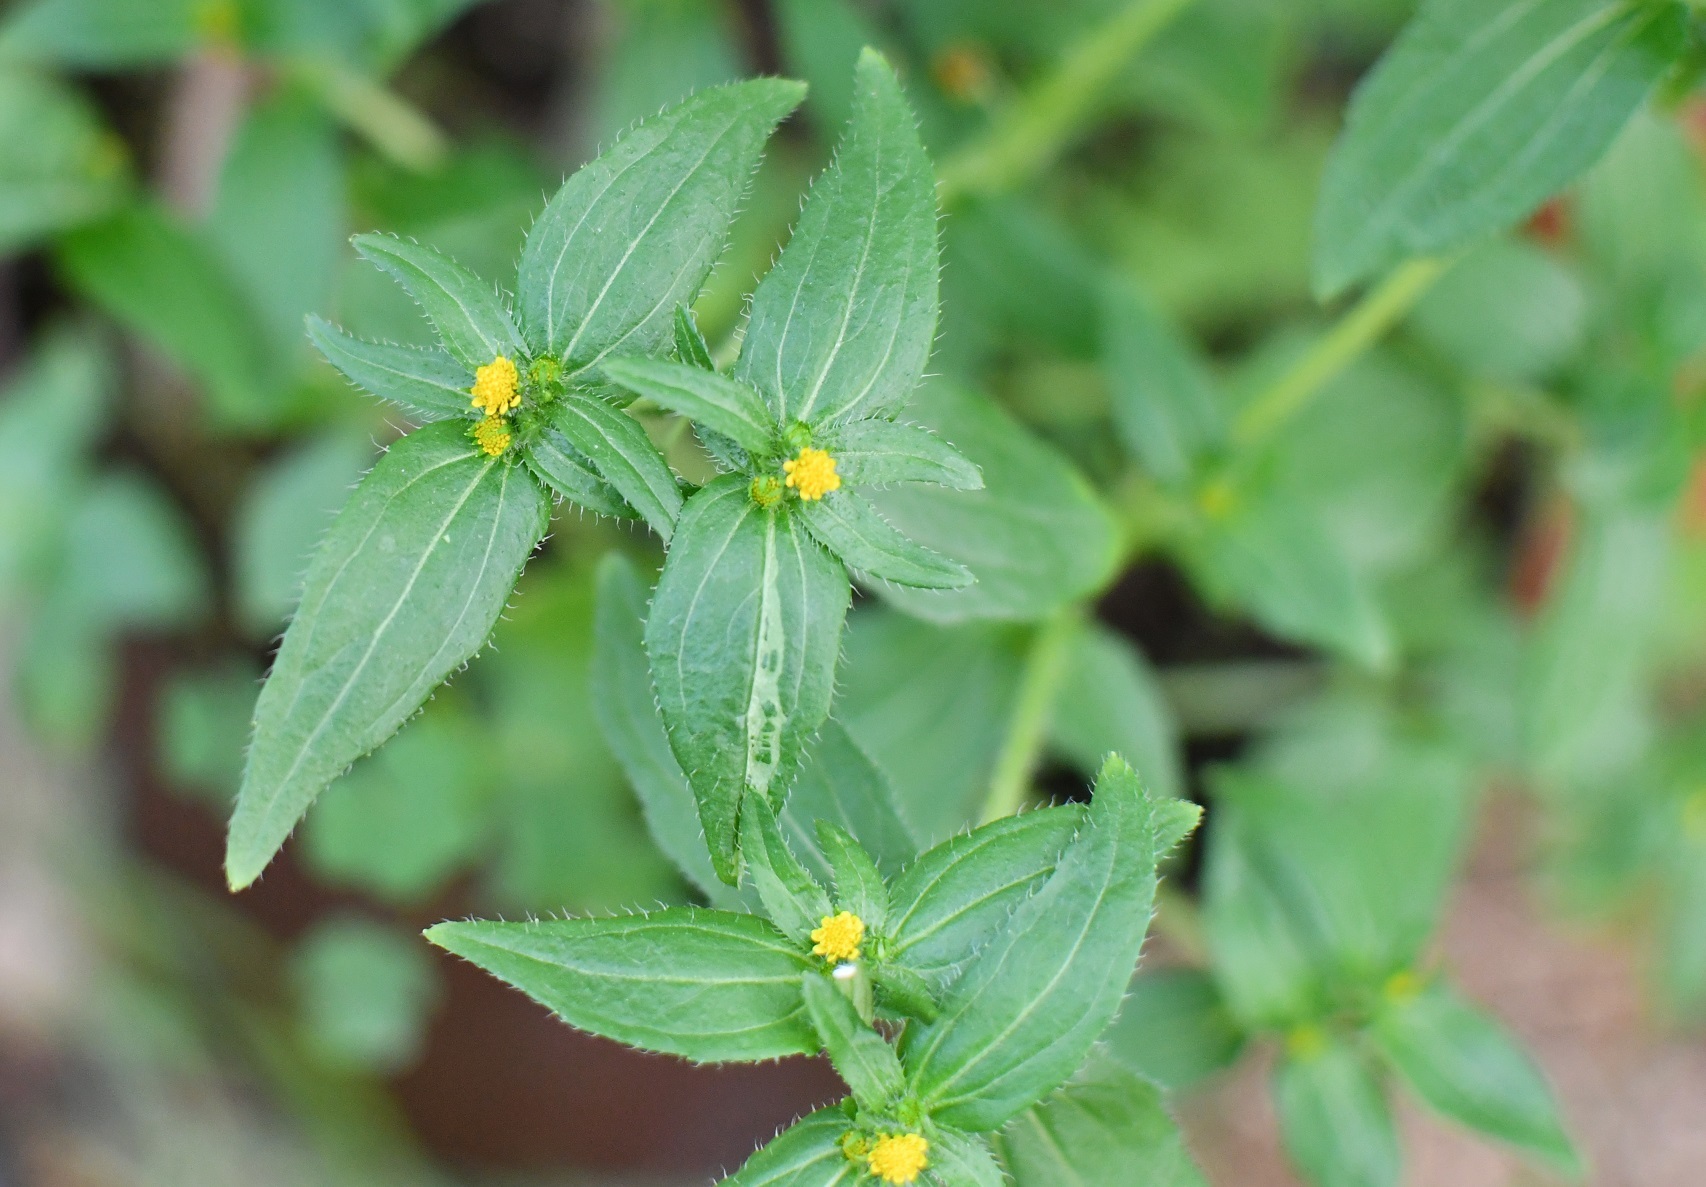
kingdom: Plantae
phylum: Tracheophyta
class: Magnoliopsida
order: Asterales
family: Asteraceae
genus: Jaegeria
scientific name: Jaegeria hirta
